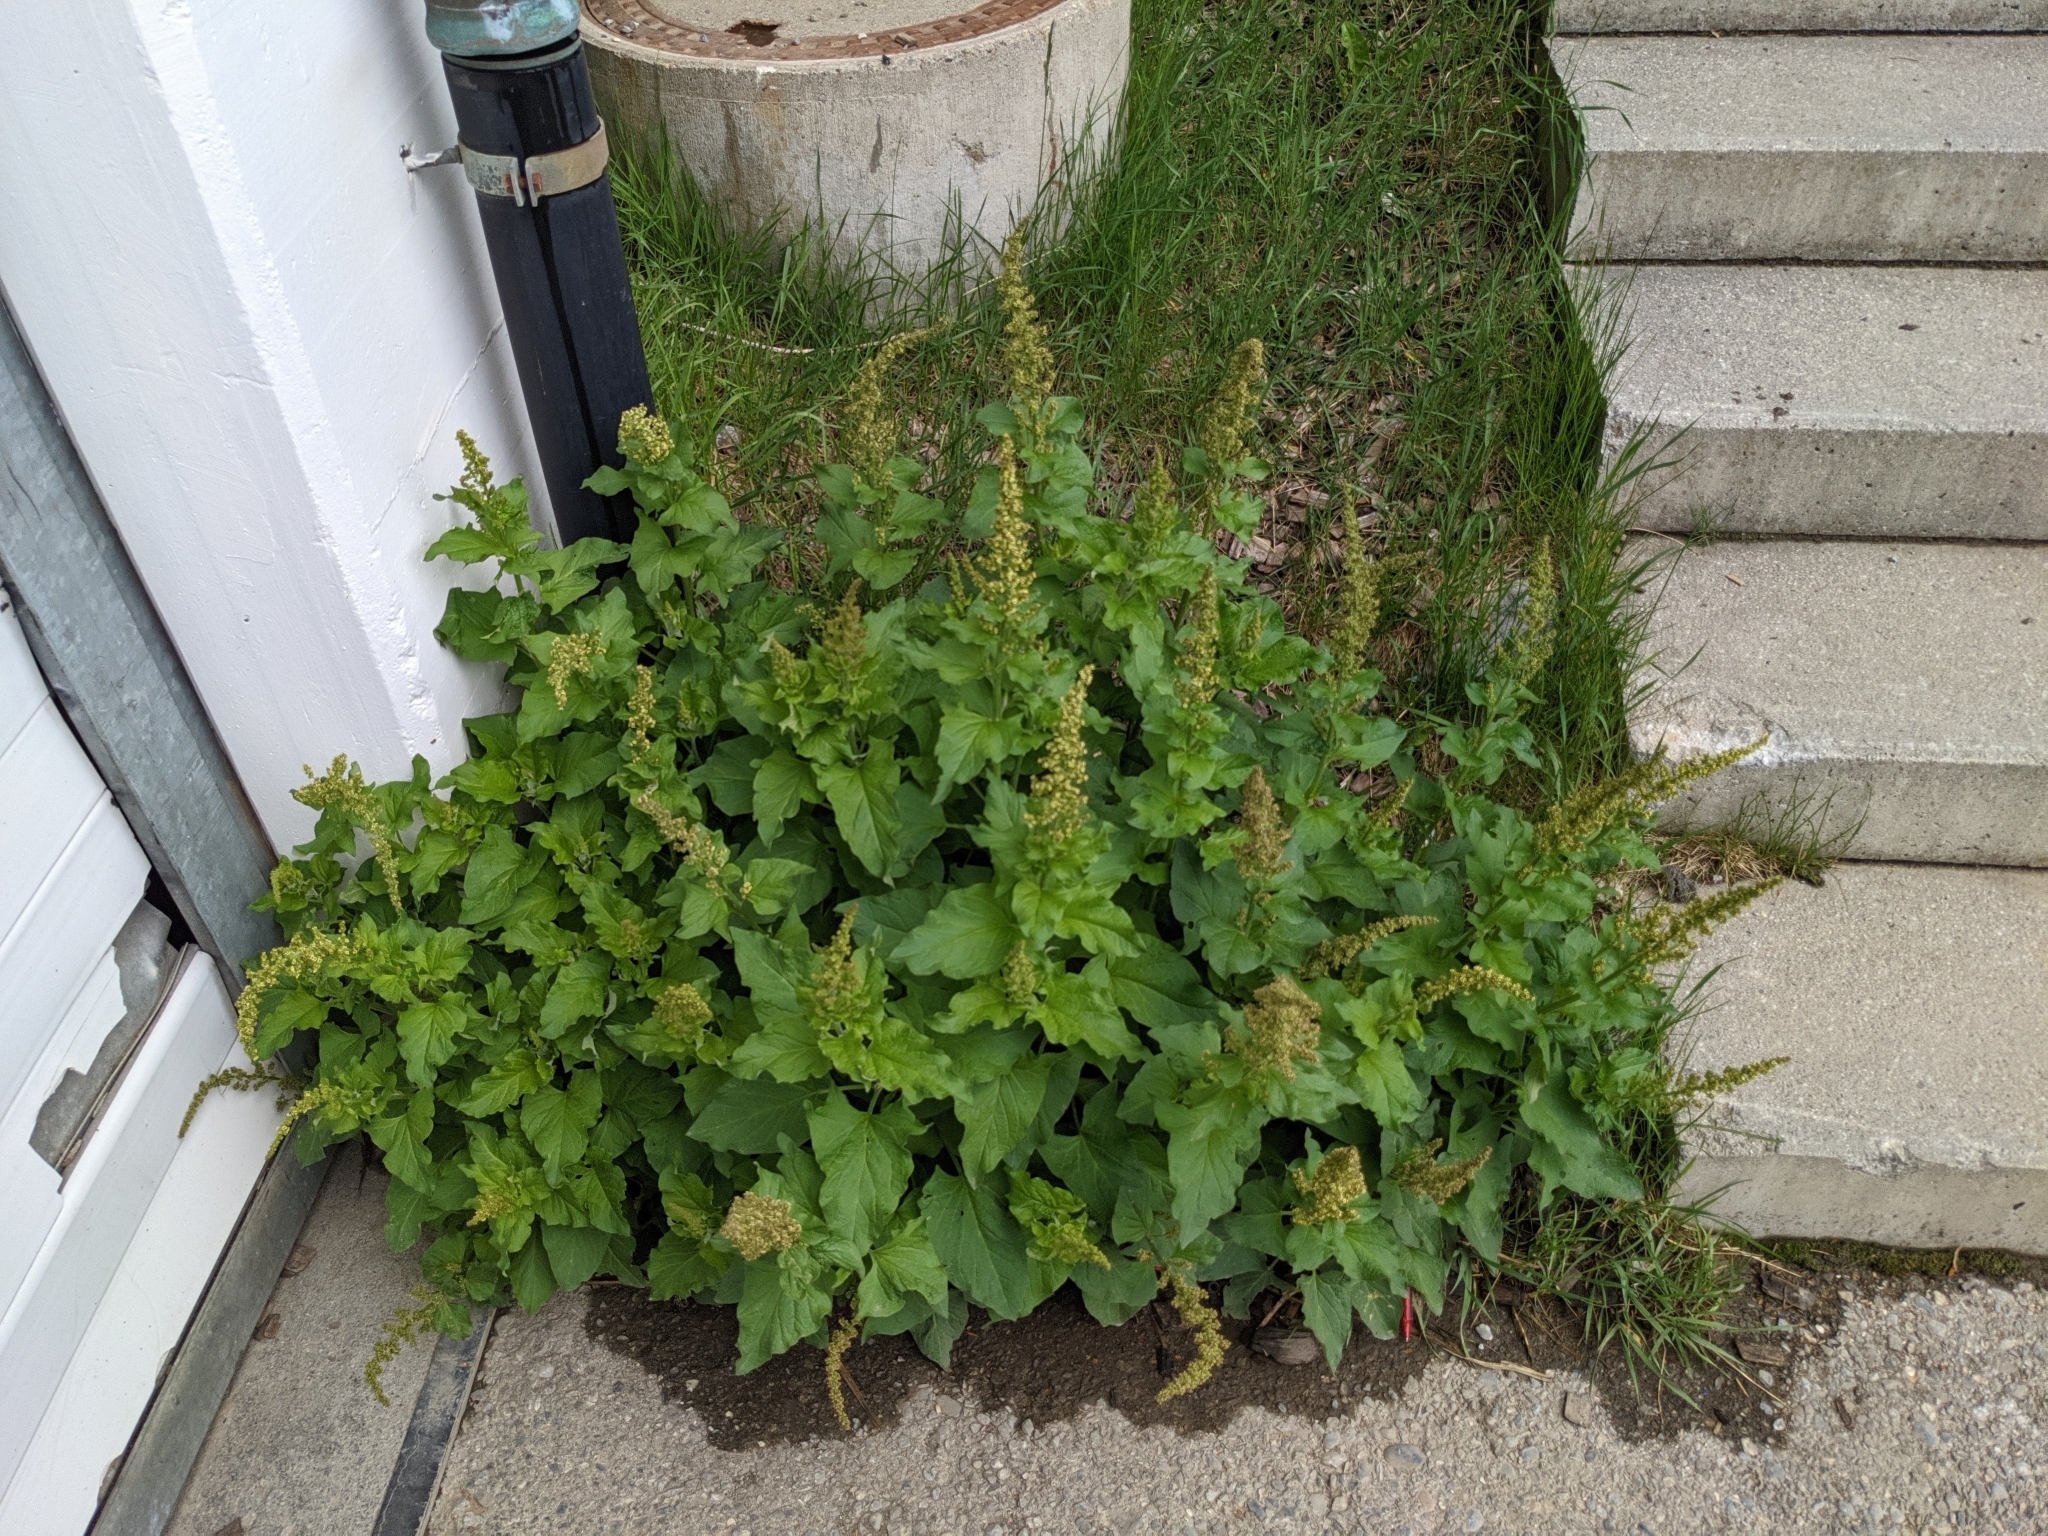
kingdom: Plantae
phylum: Tracheophyta
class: Magnoliopsida
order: Caryophyllales
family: Amaranthaceae
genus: Blitum
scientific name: Blitum bonus-henricus
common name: Good king henry
